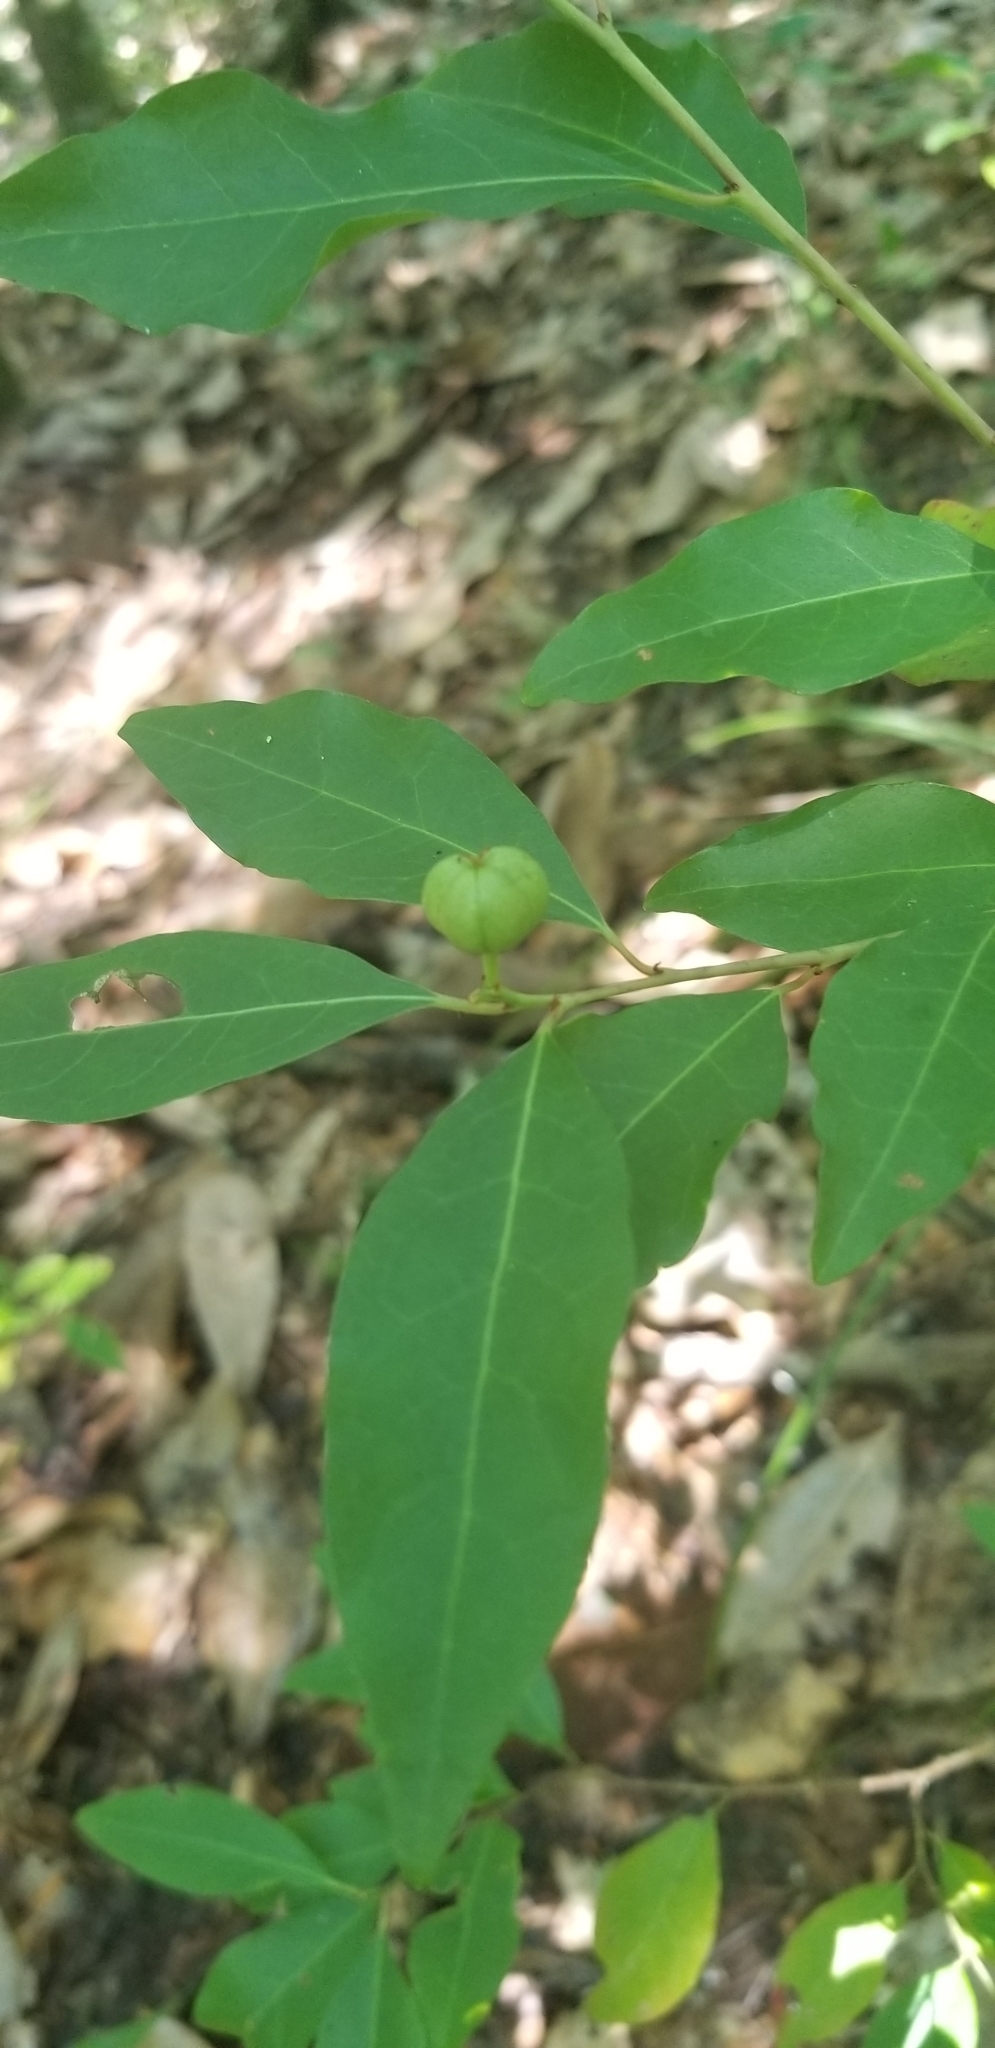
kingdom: Plantae
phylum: Tracheophyta
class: Magnoliopsida
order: Malpighiales
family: Euphorbiaceae
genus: Ditrysinia
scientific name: Ditrysinia fruticosa
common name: Gulf sebastian-bush
